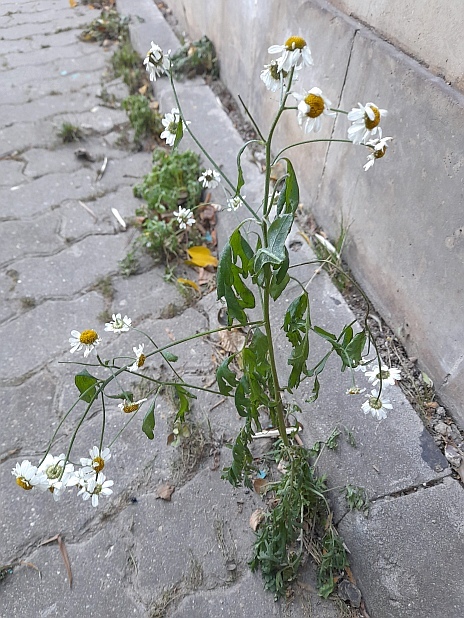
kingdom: Plantae
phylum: Tracheophyta
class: Magnoliopsida
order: Asterales
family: Asteraceae
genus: Tanacetum
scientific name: Tanacetum parthenium
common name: Feverfew
